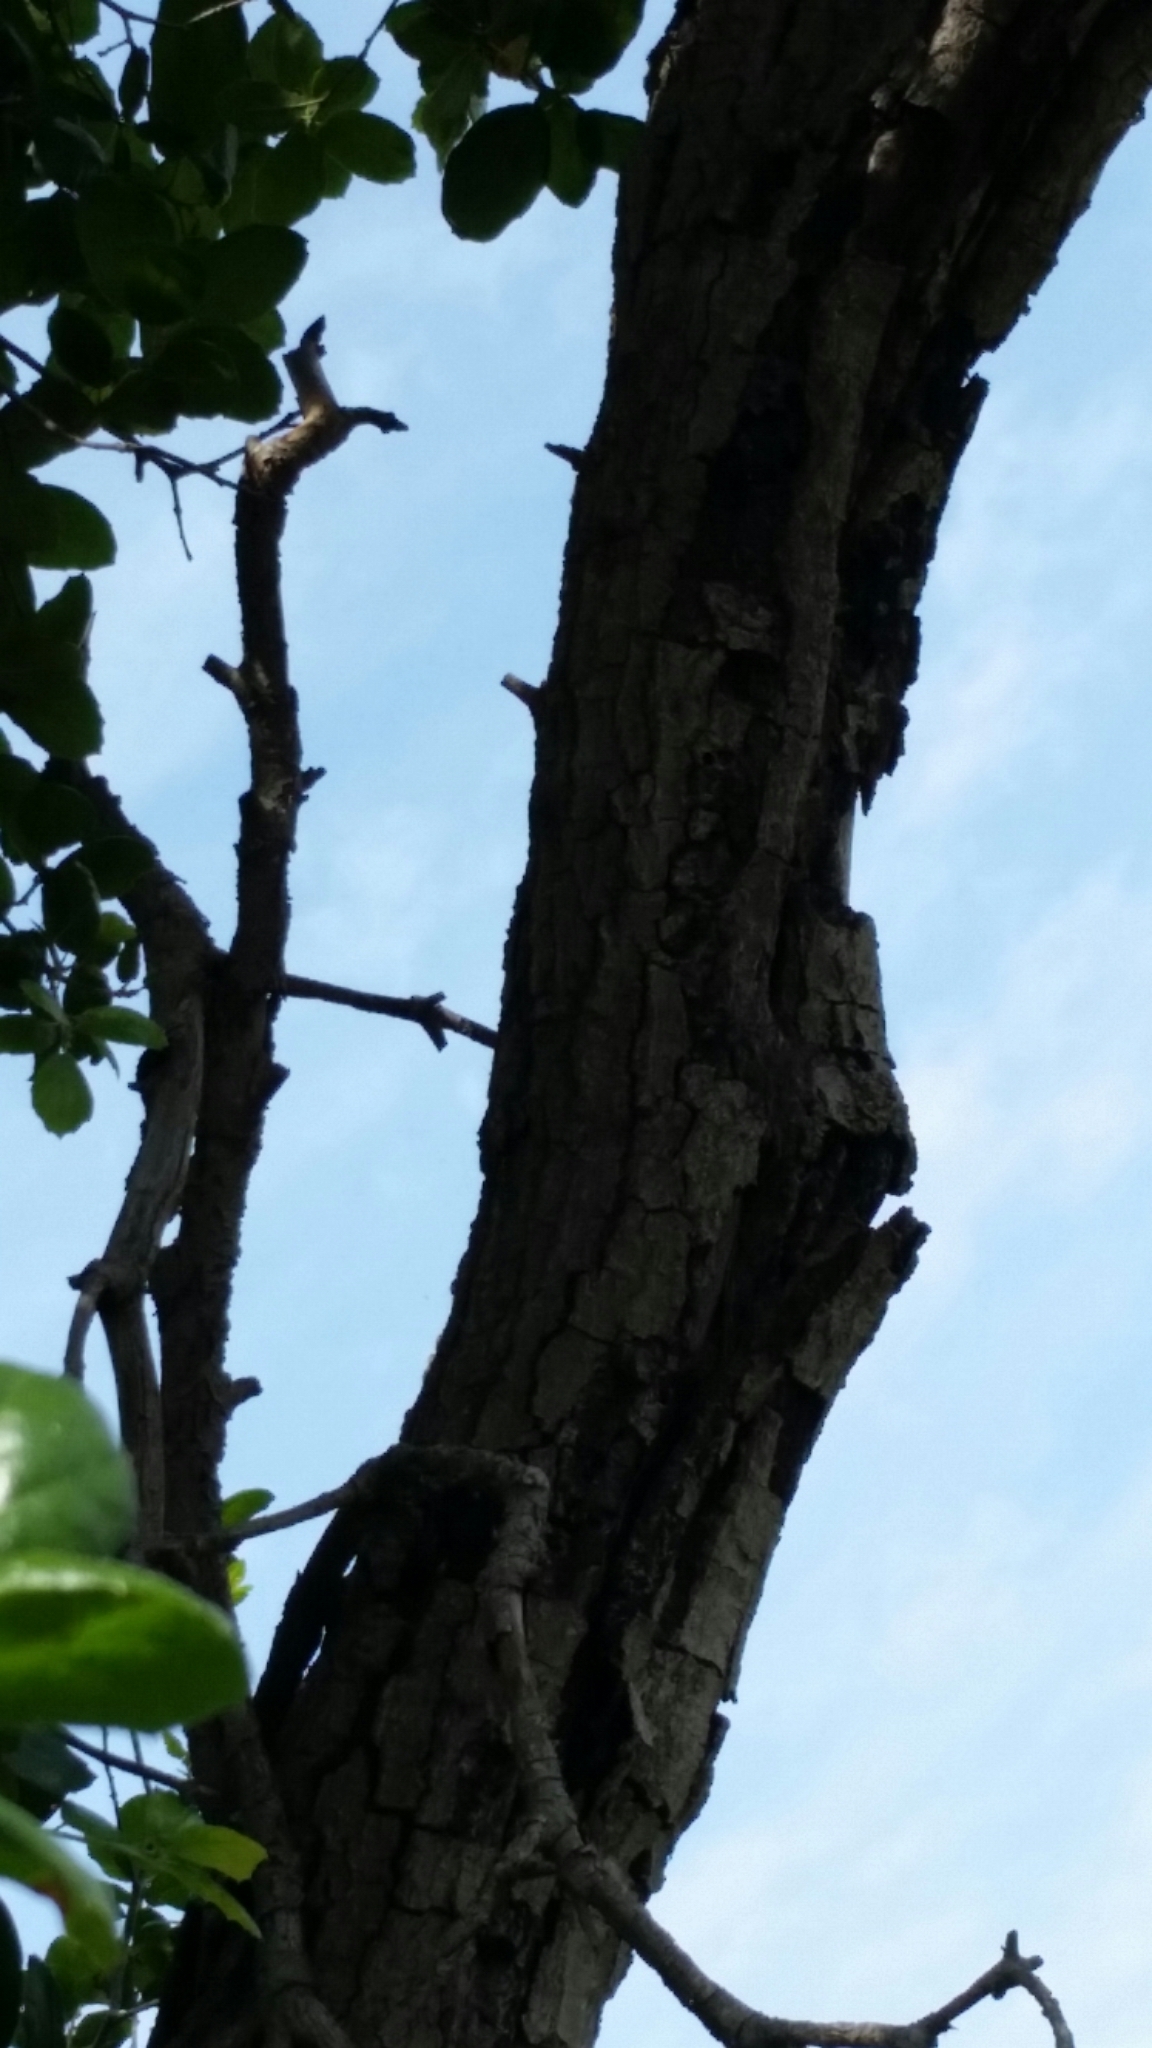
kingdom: Plantae
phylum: Tracheophyta
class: Magnoliopsida
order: Fagales
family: Fagaceae
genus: Quercus
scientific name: Quercus agrifolia
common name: California live oak
